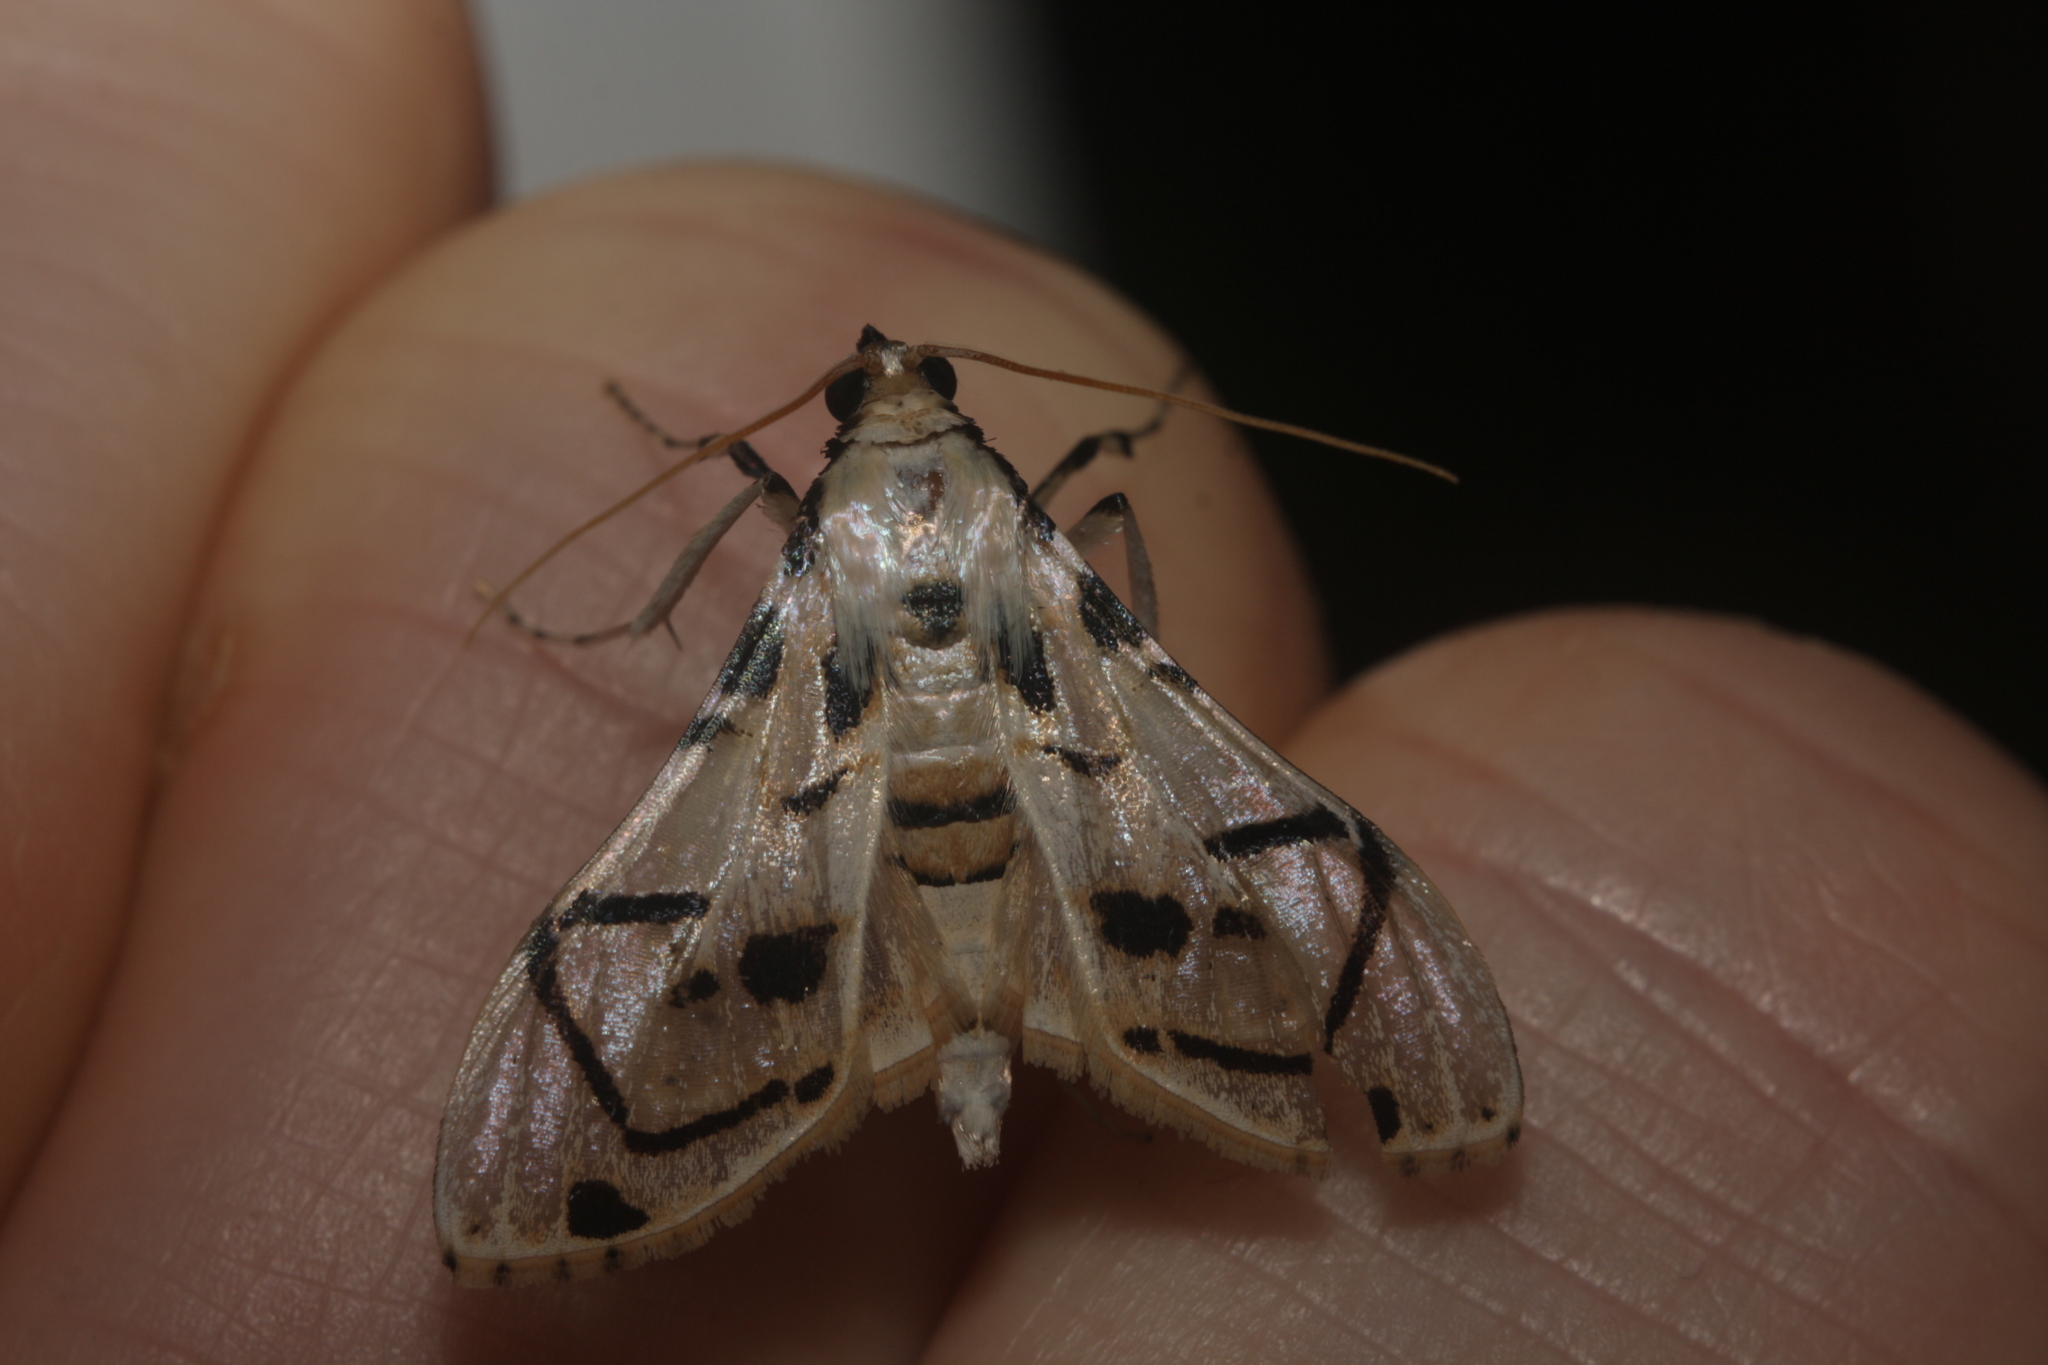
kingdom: Animalia
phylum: Arthropoda
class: Insecta
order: Lepidoptera
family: Crambidae
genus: Azochis
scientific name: Azochis ruscialis
